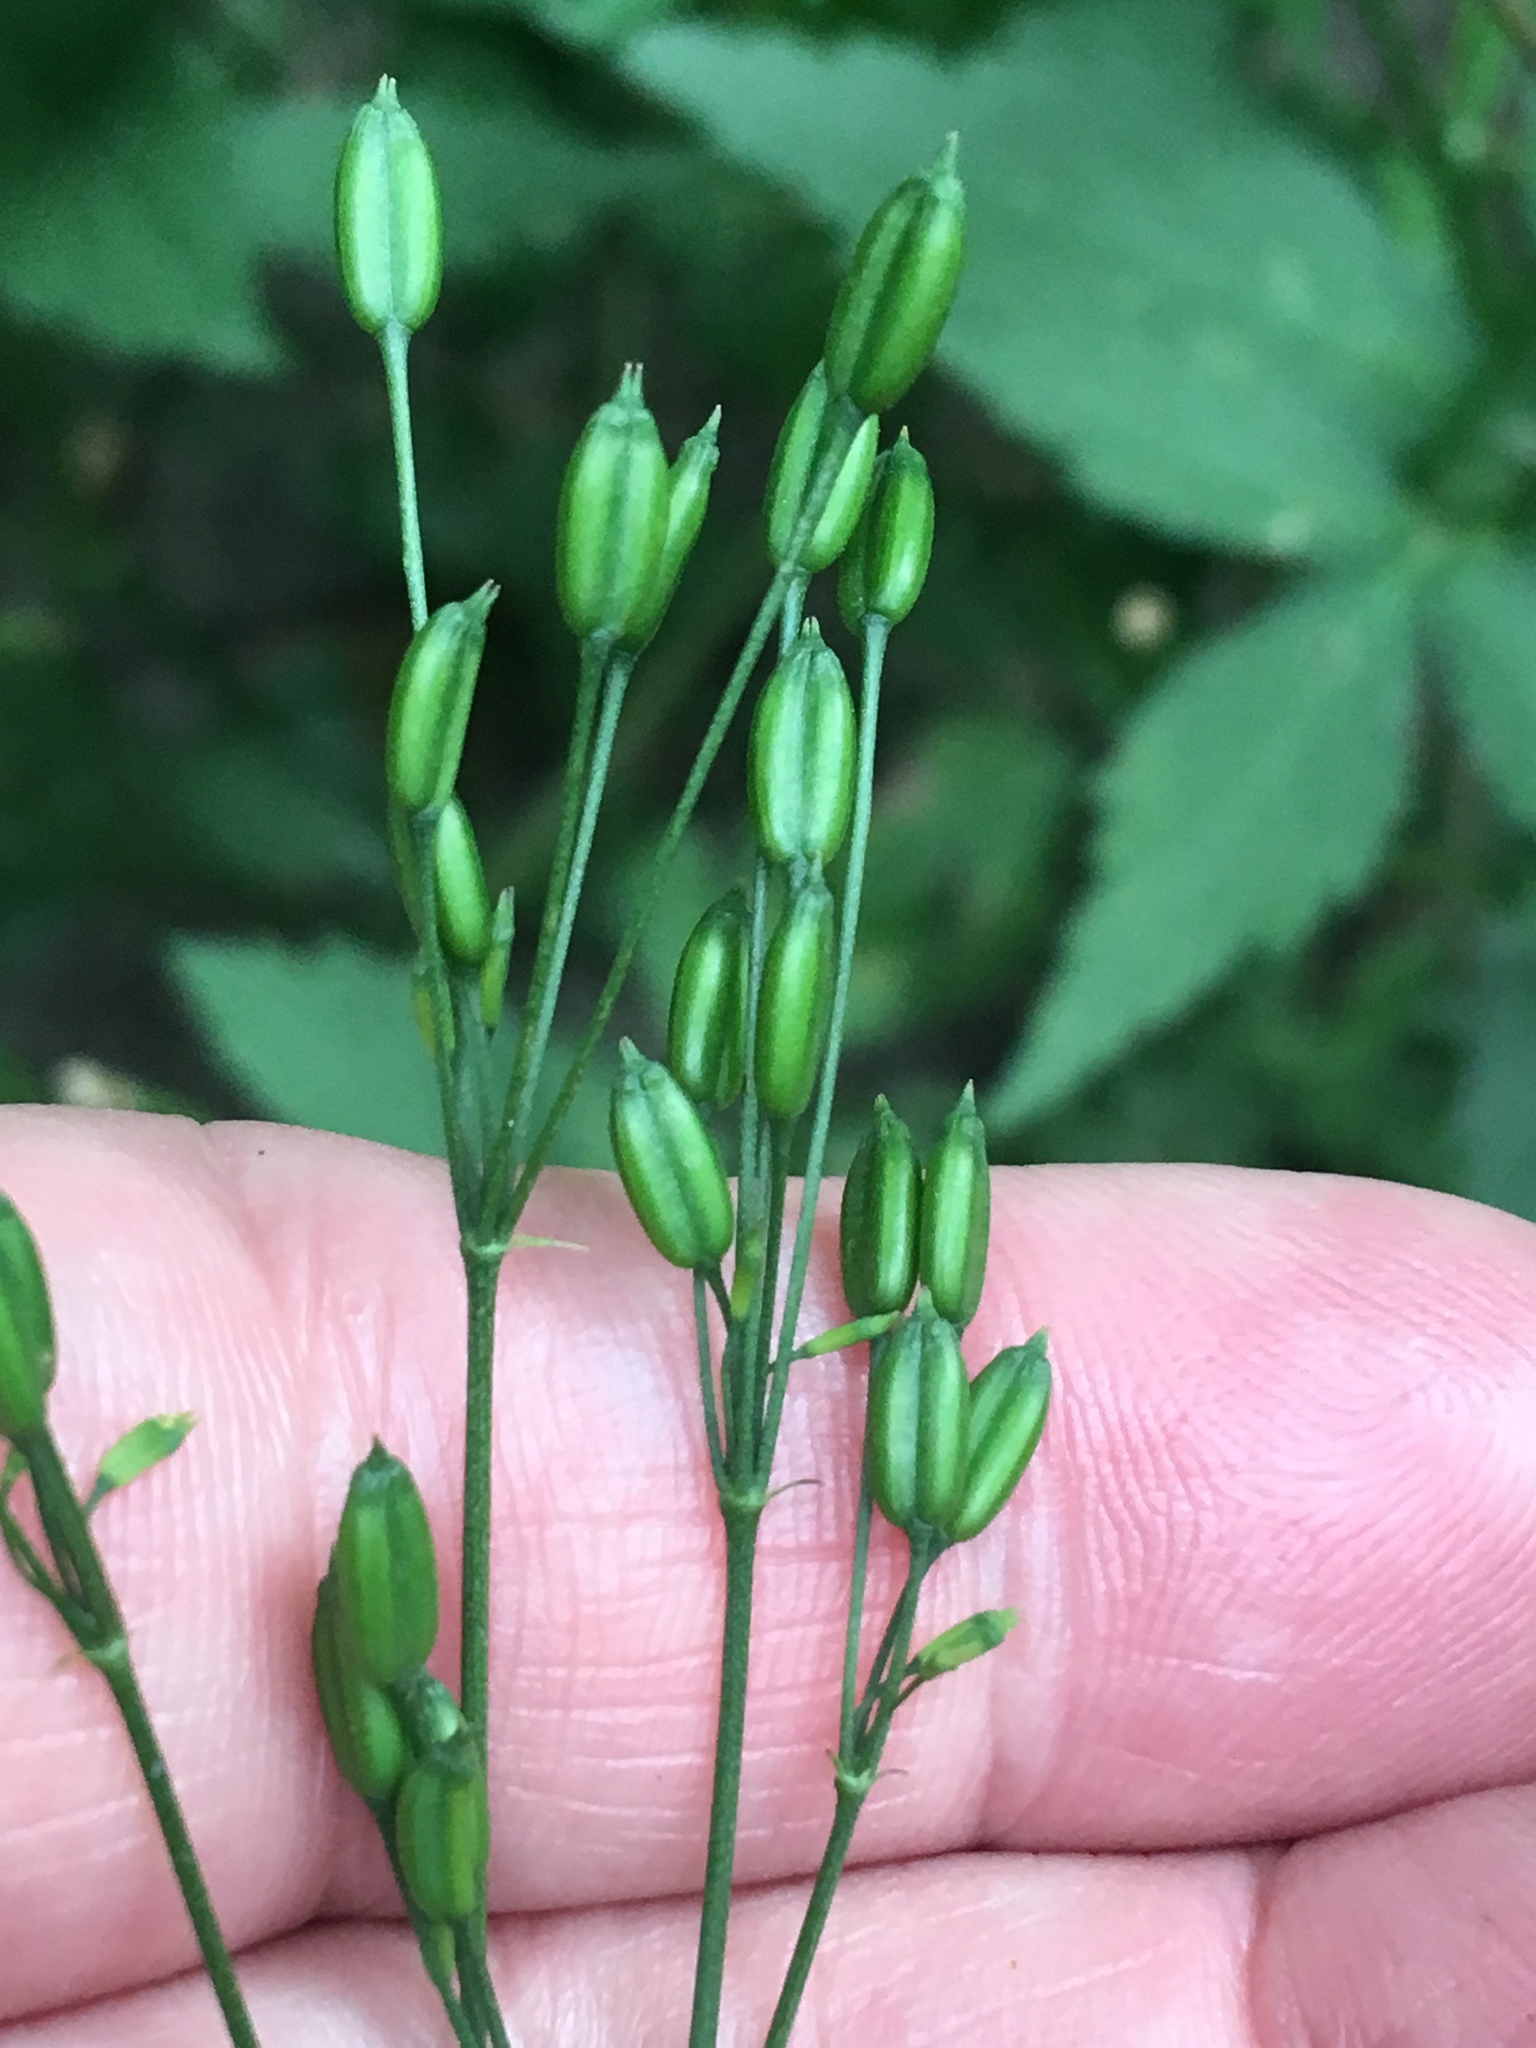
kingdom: Plantae
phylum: Tracheophyta
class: Magnoliopsida
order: Apiales
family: Apiaceae
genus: Cryptotaenia
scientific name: Cryptotaenia canadensis
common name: Honewort
